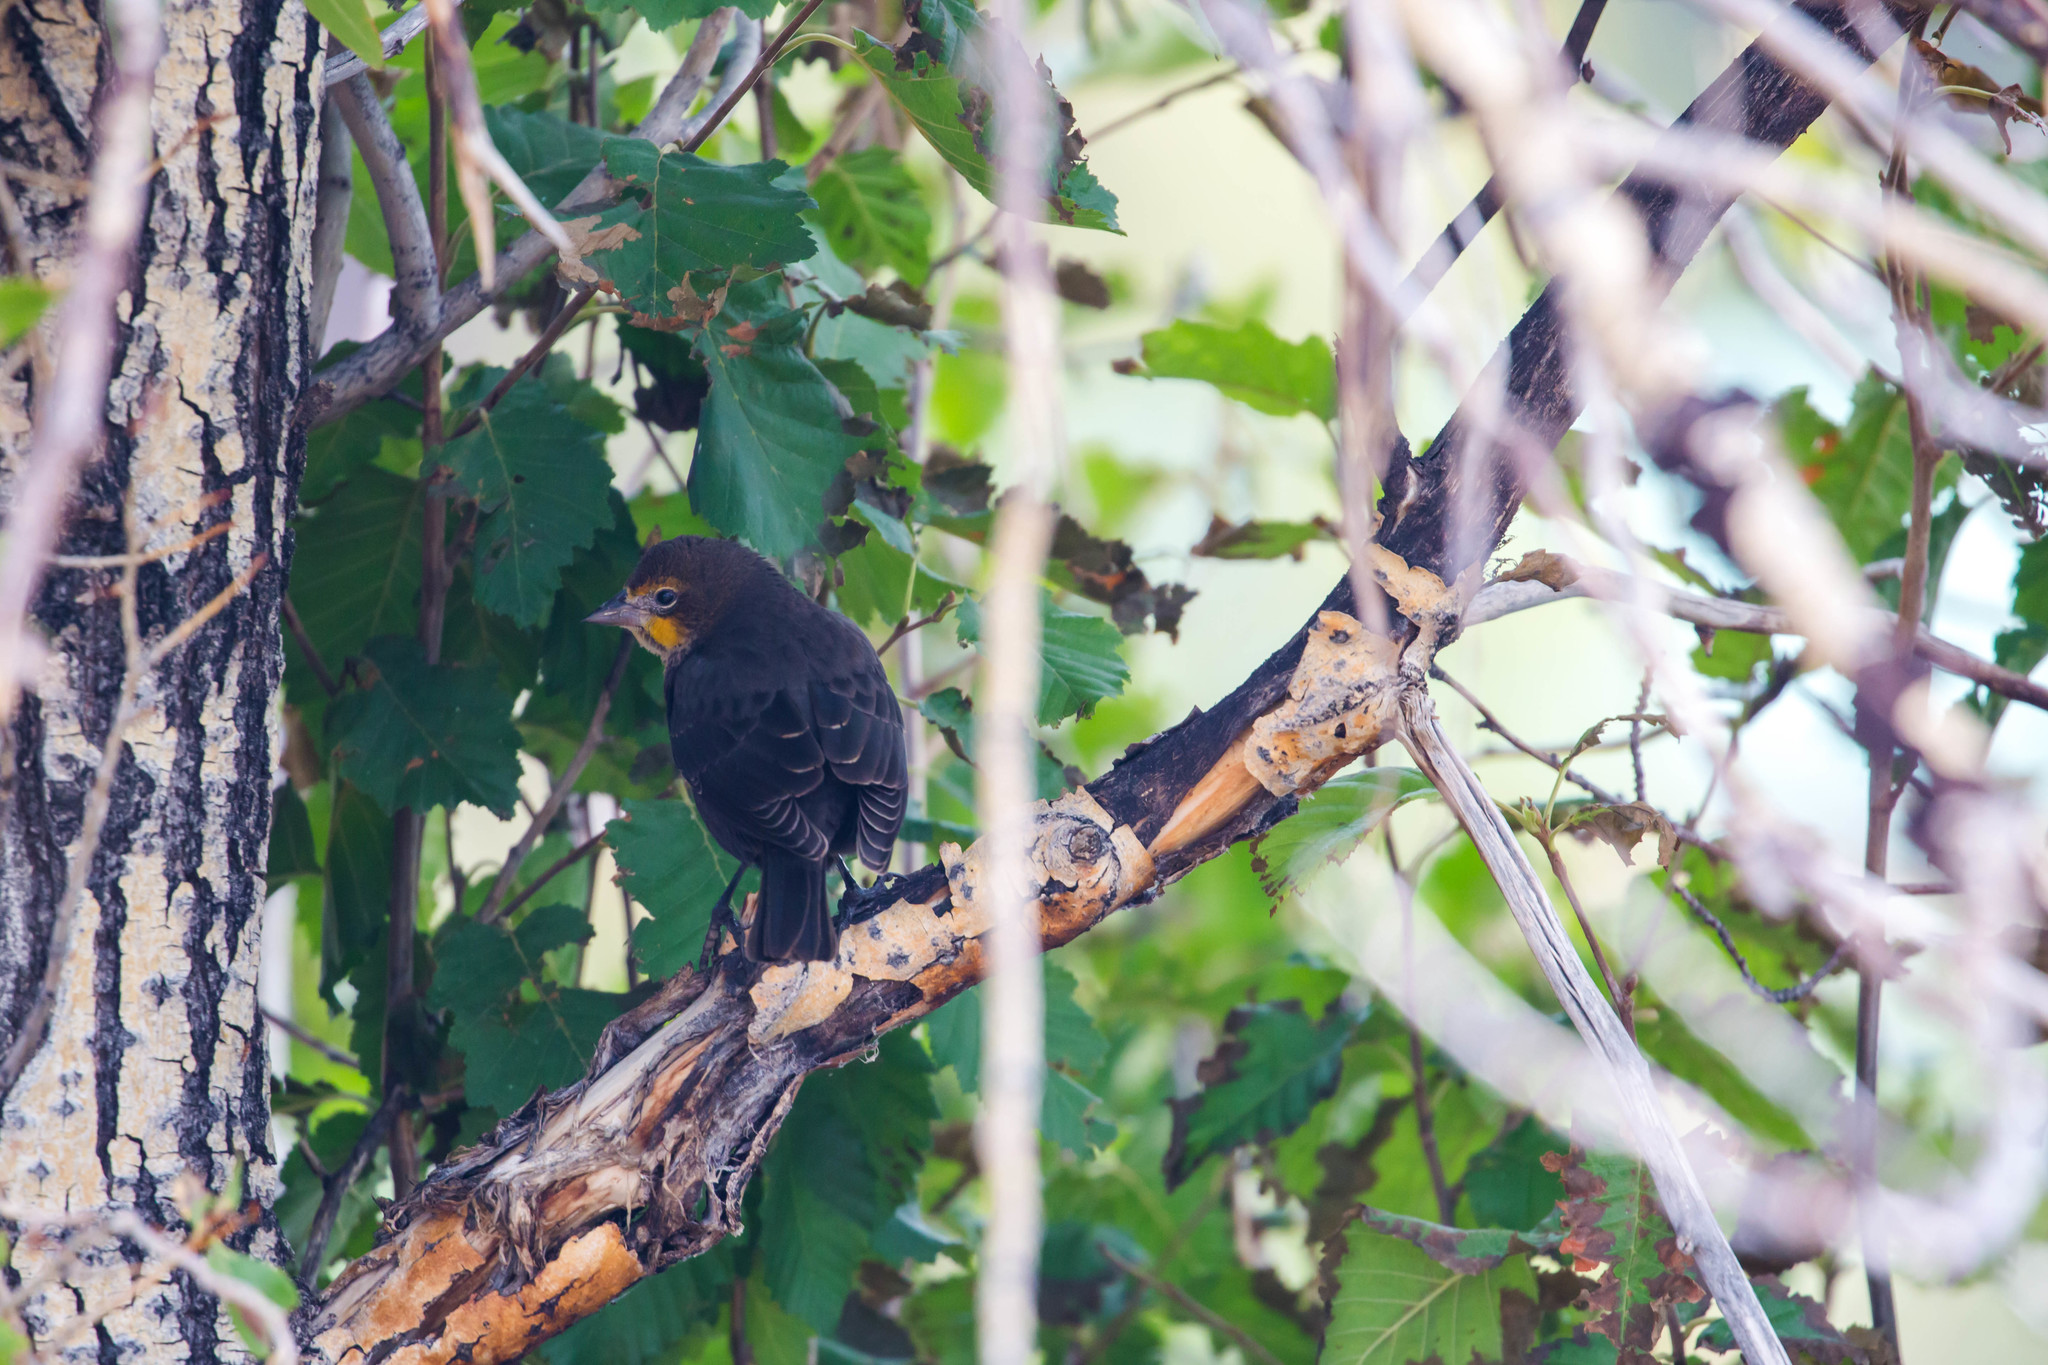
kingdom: Animalia
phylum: Chordata
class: Aves
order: Passeriformes
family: Icteridae
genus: Xanthocephalus
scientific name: Xanthocephalus xanthocephalus
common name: Yellow-headed blackbird
